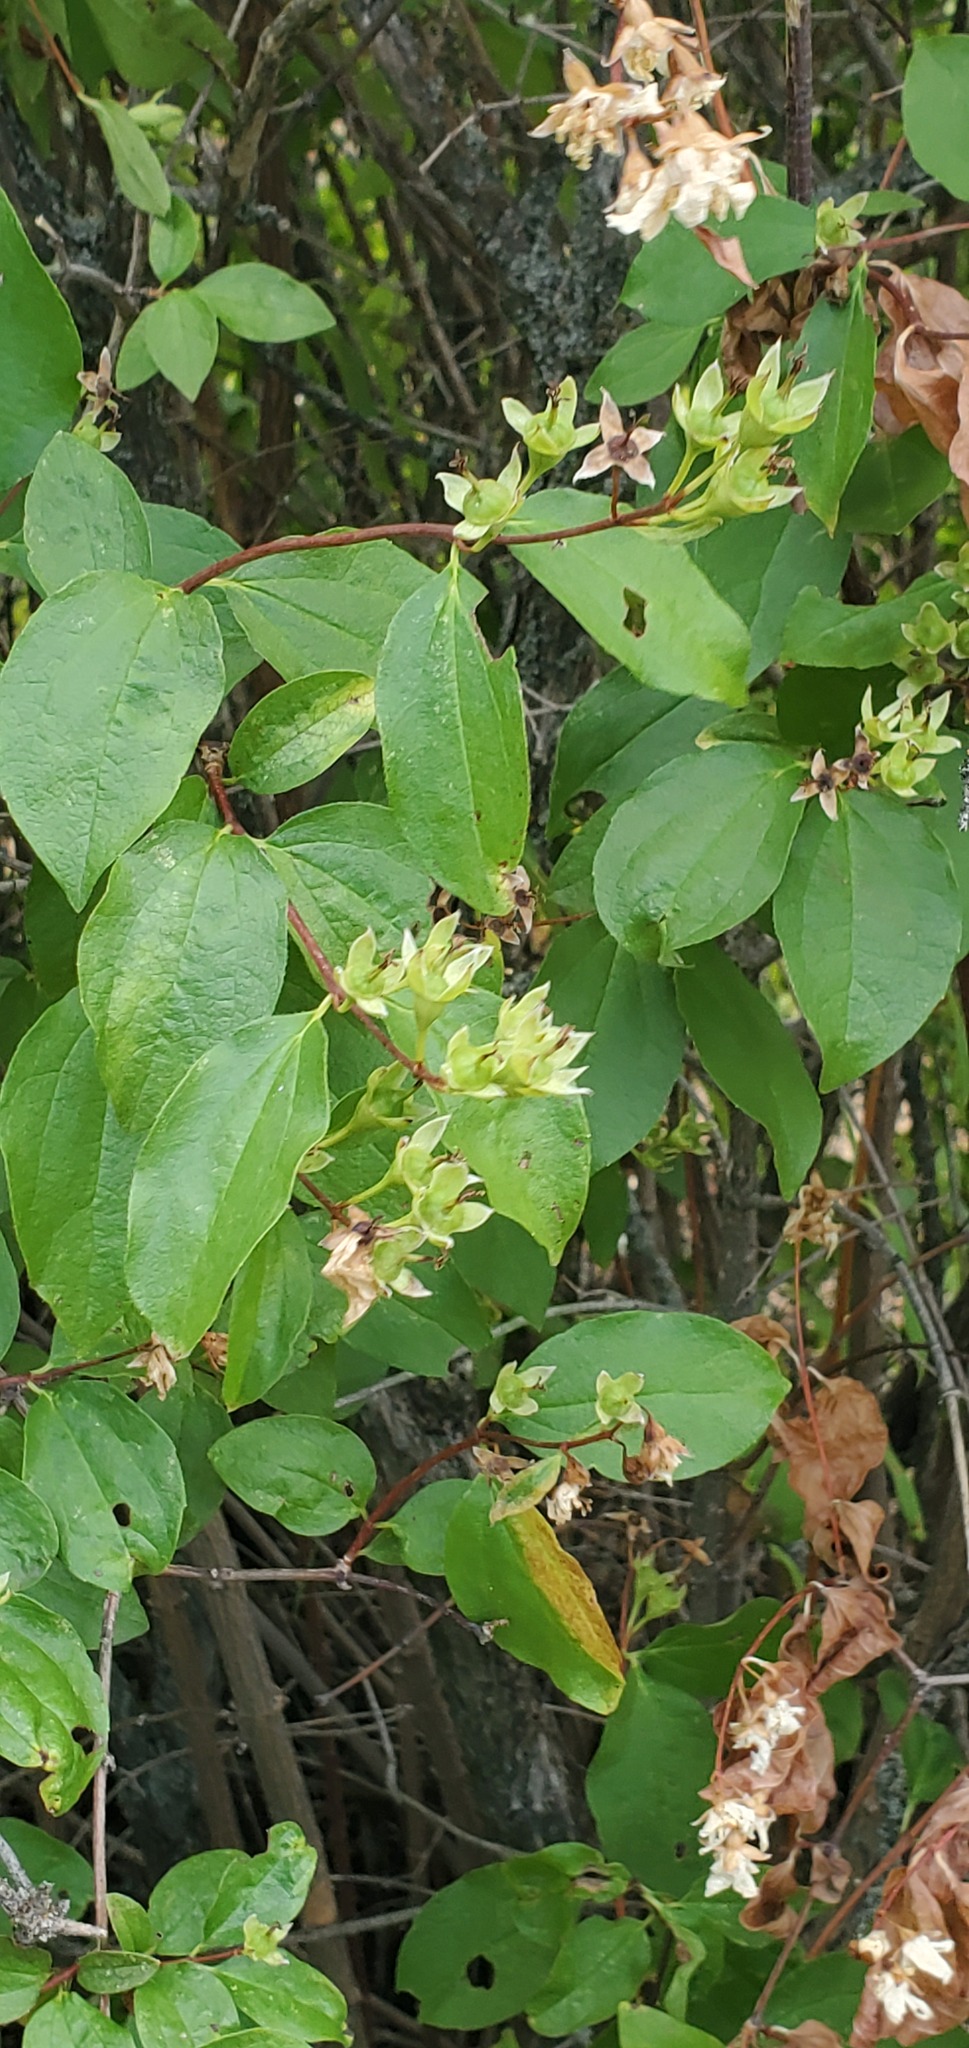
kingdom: Plantae
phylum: Tracheophyta
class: Magnoliopsida
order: Cornales
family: Hydrangeaceae
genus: Philadelphus
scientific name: Philadelphus lewisii
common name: Lewis's mock orange
